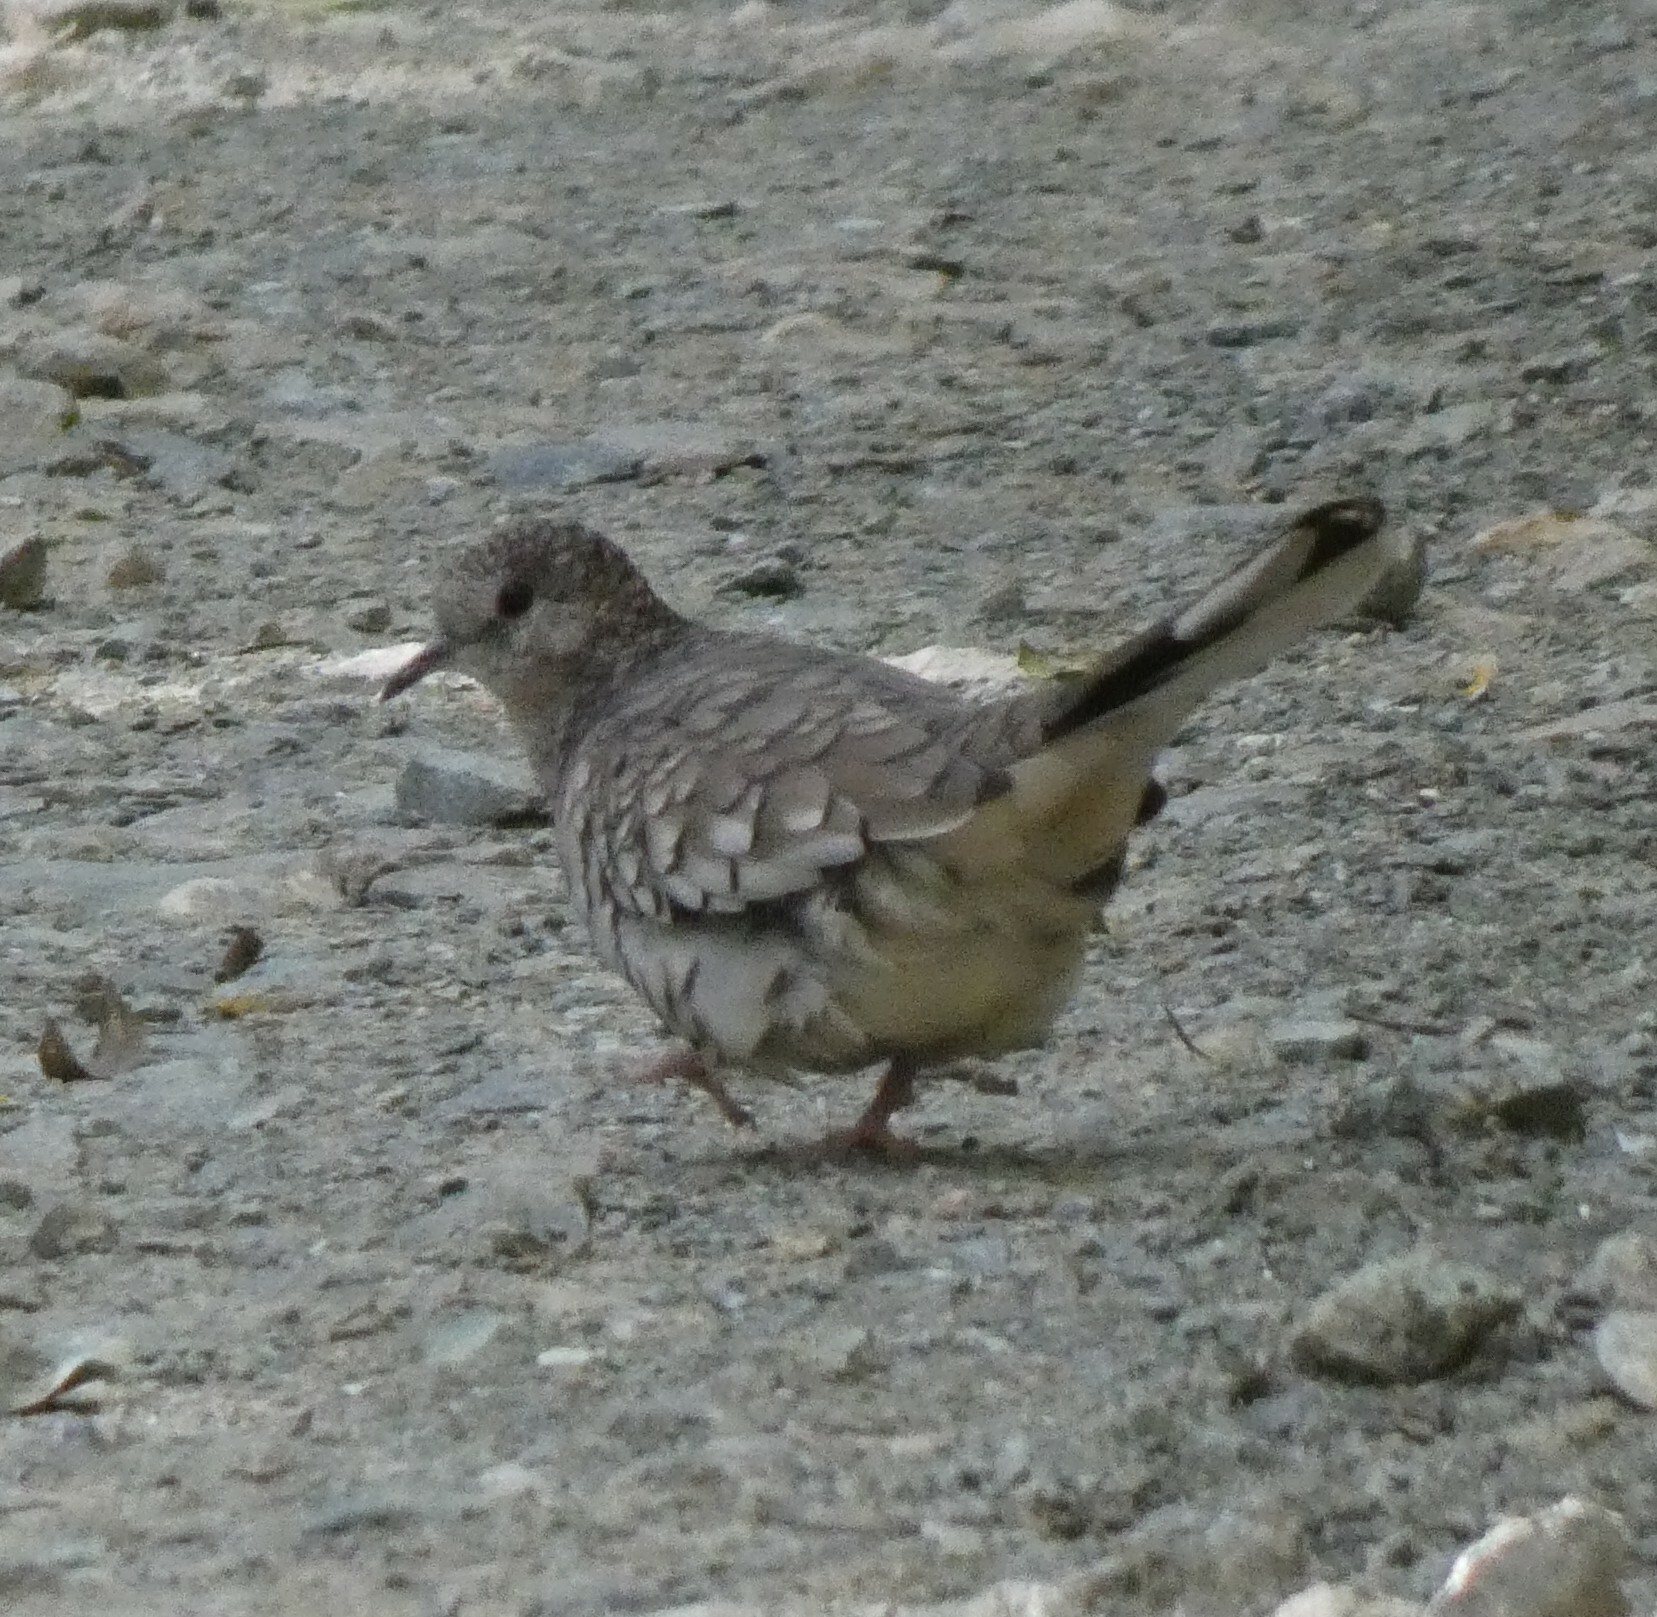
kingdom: Animalia
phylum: Chordata
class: Aves
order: Columbiformes
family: Columbidae
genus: Columbina
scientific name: Columbina squammata
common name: Scaled dove
